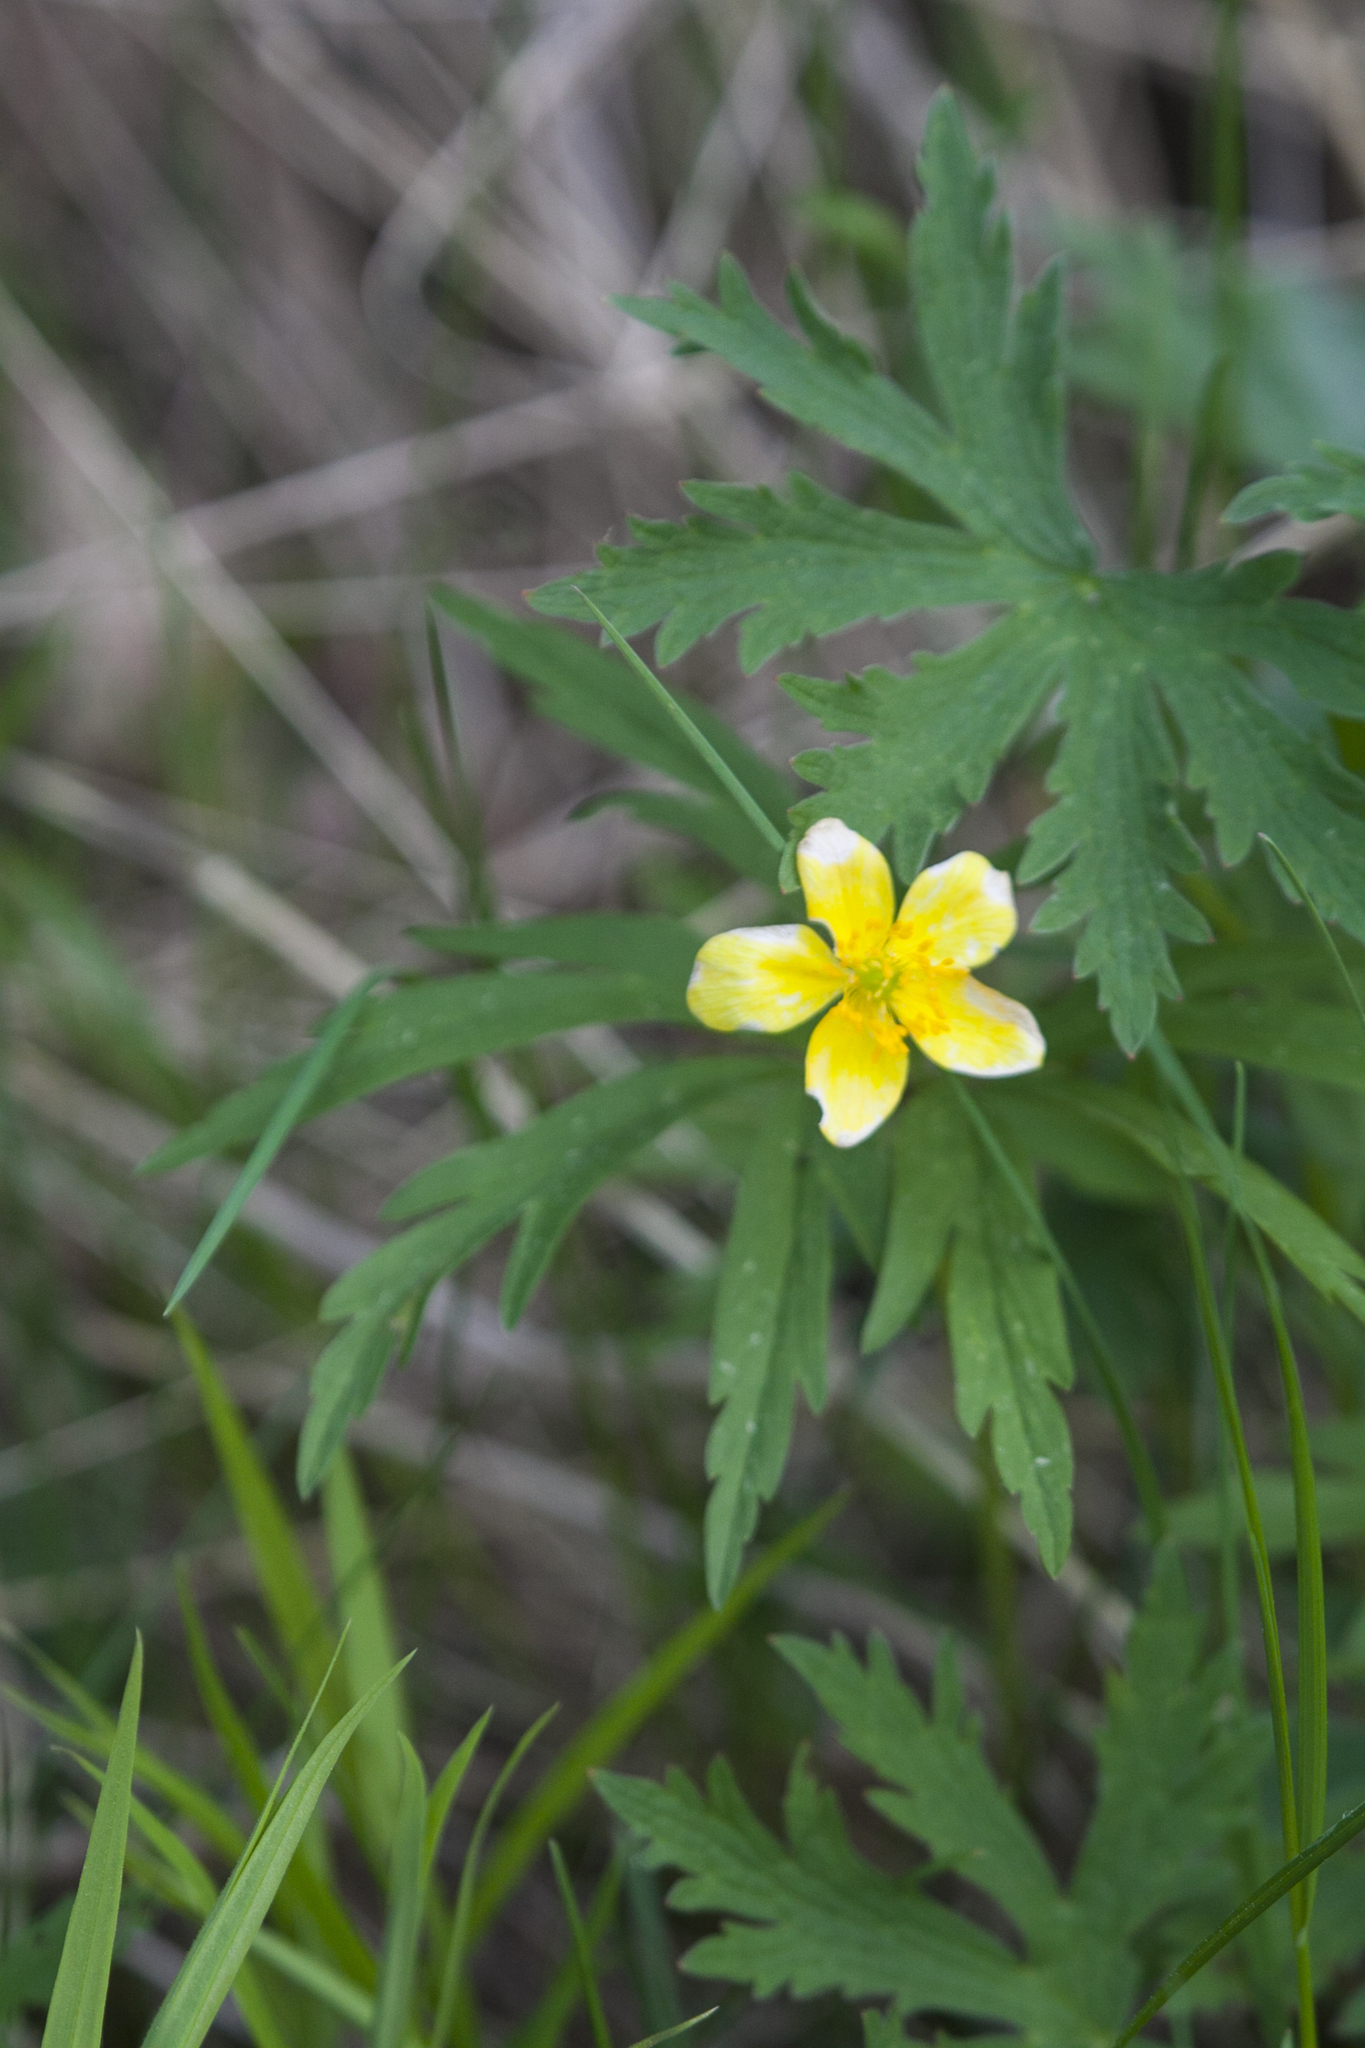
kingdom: Plantae
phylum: Tracheophyta
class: Magnoliopsida
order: Ranunculales
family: Ranunculaceae
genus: Anemone
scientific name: Anemone ranunculoides
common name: Yellow anemone
